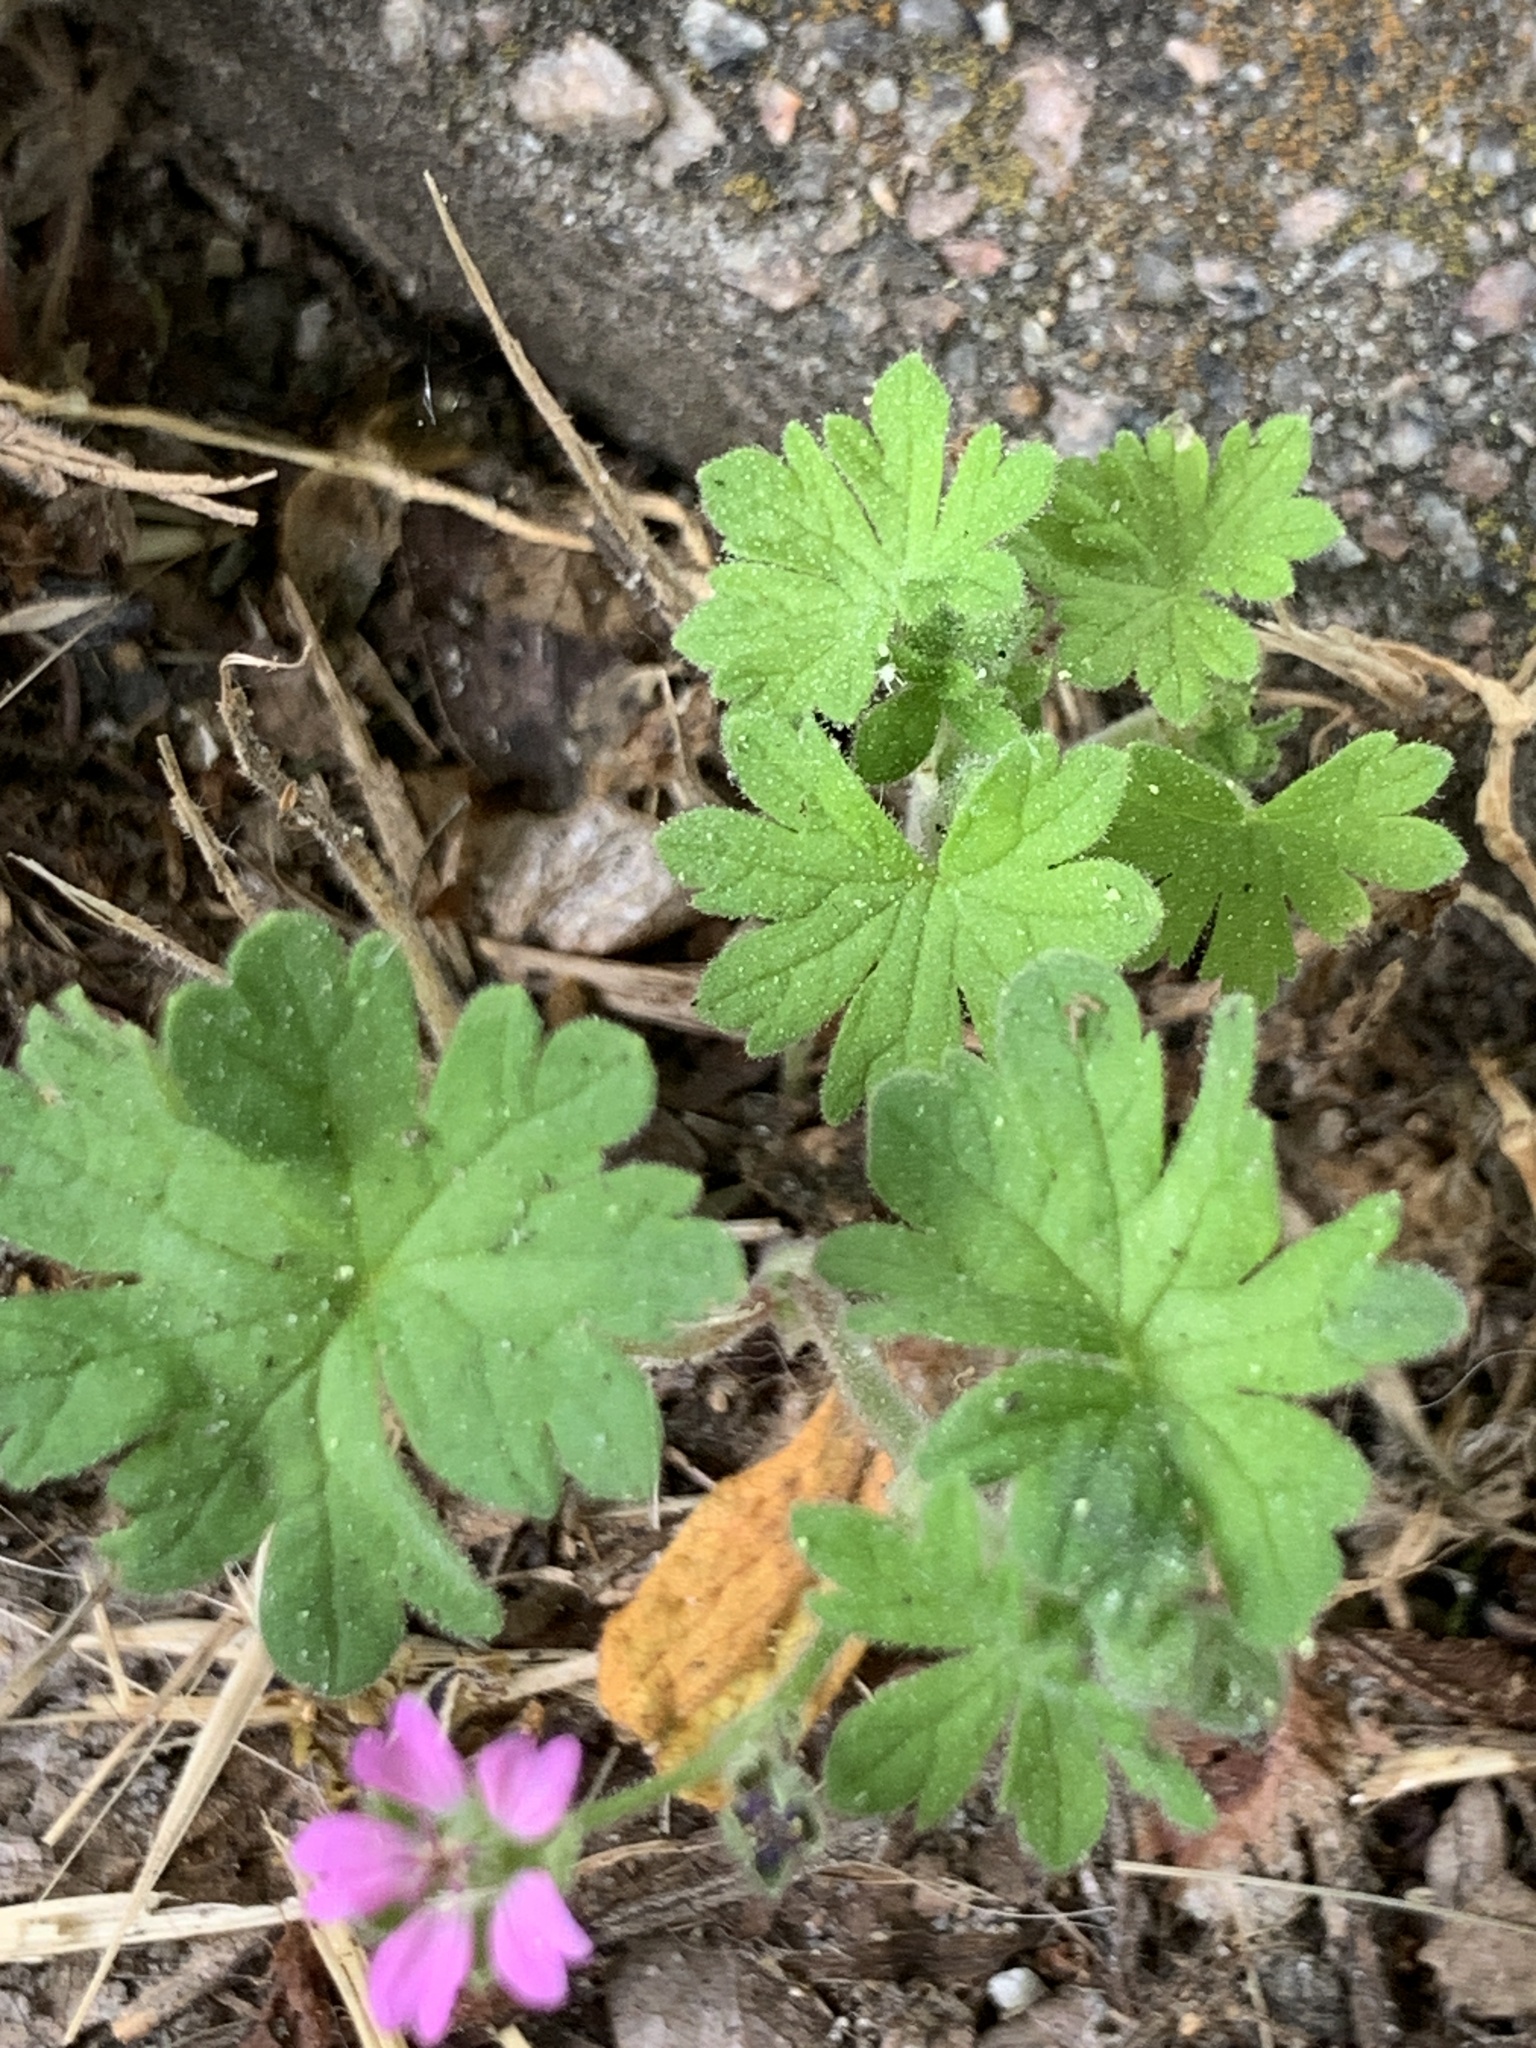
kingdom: Plantae
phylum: Tracheophyta
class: Magnoliopsida
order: Geraniales
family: Geraniaceae
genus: Geranium
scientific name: Geranium pusillum
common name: Small geranium
